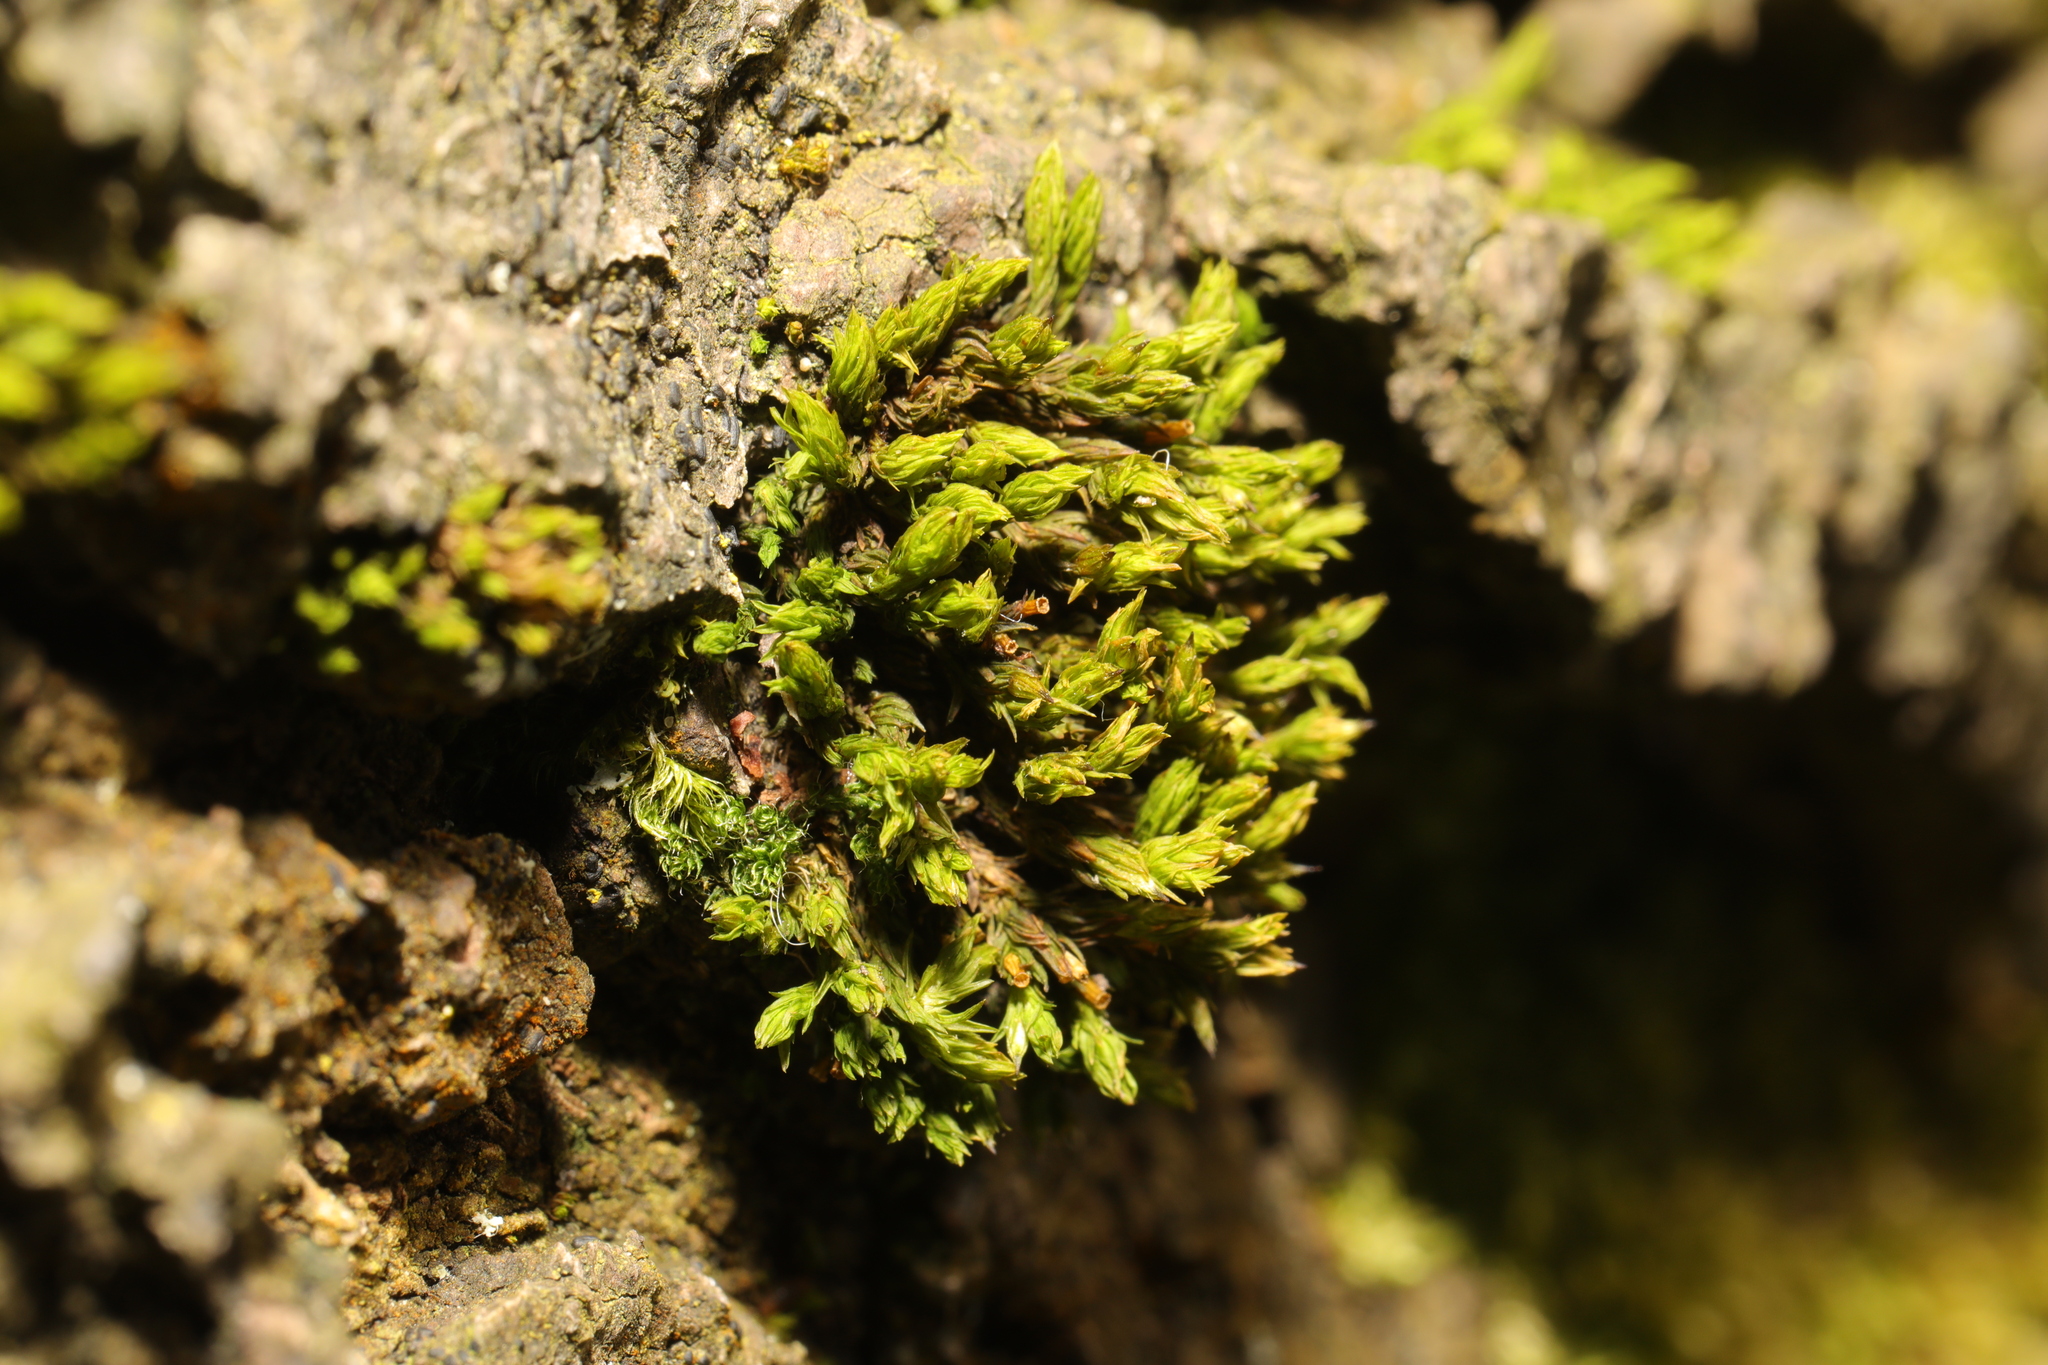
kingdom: Plantae
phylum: Bryophyta
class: Bryopsida
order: Orthotrichales
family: Orthotrichaceae
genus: Lewinskya
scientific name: Lewinskya affinis
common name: Wood bristle-moss
